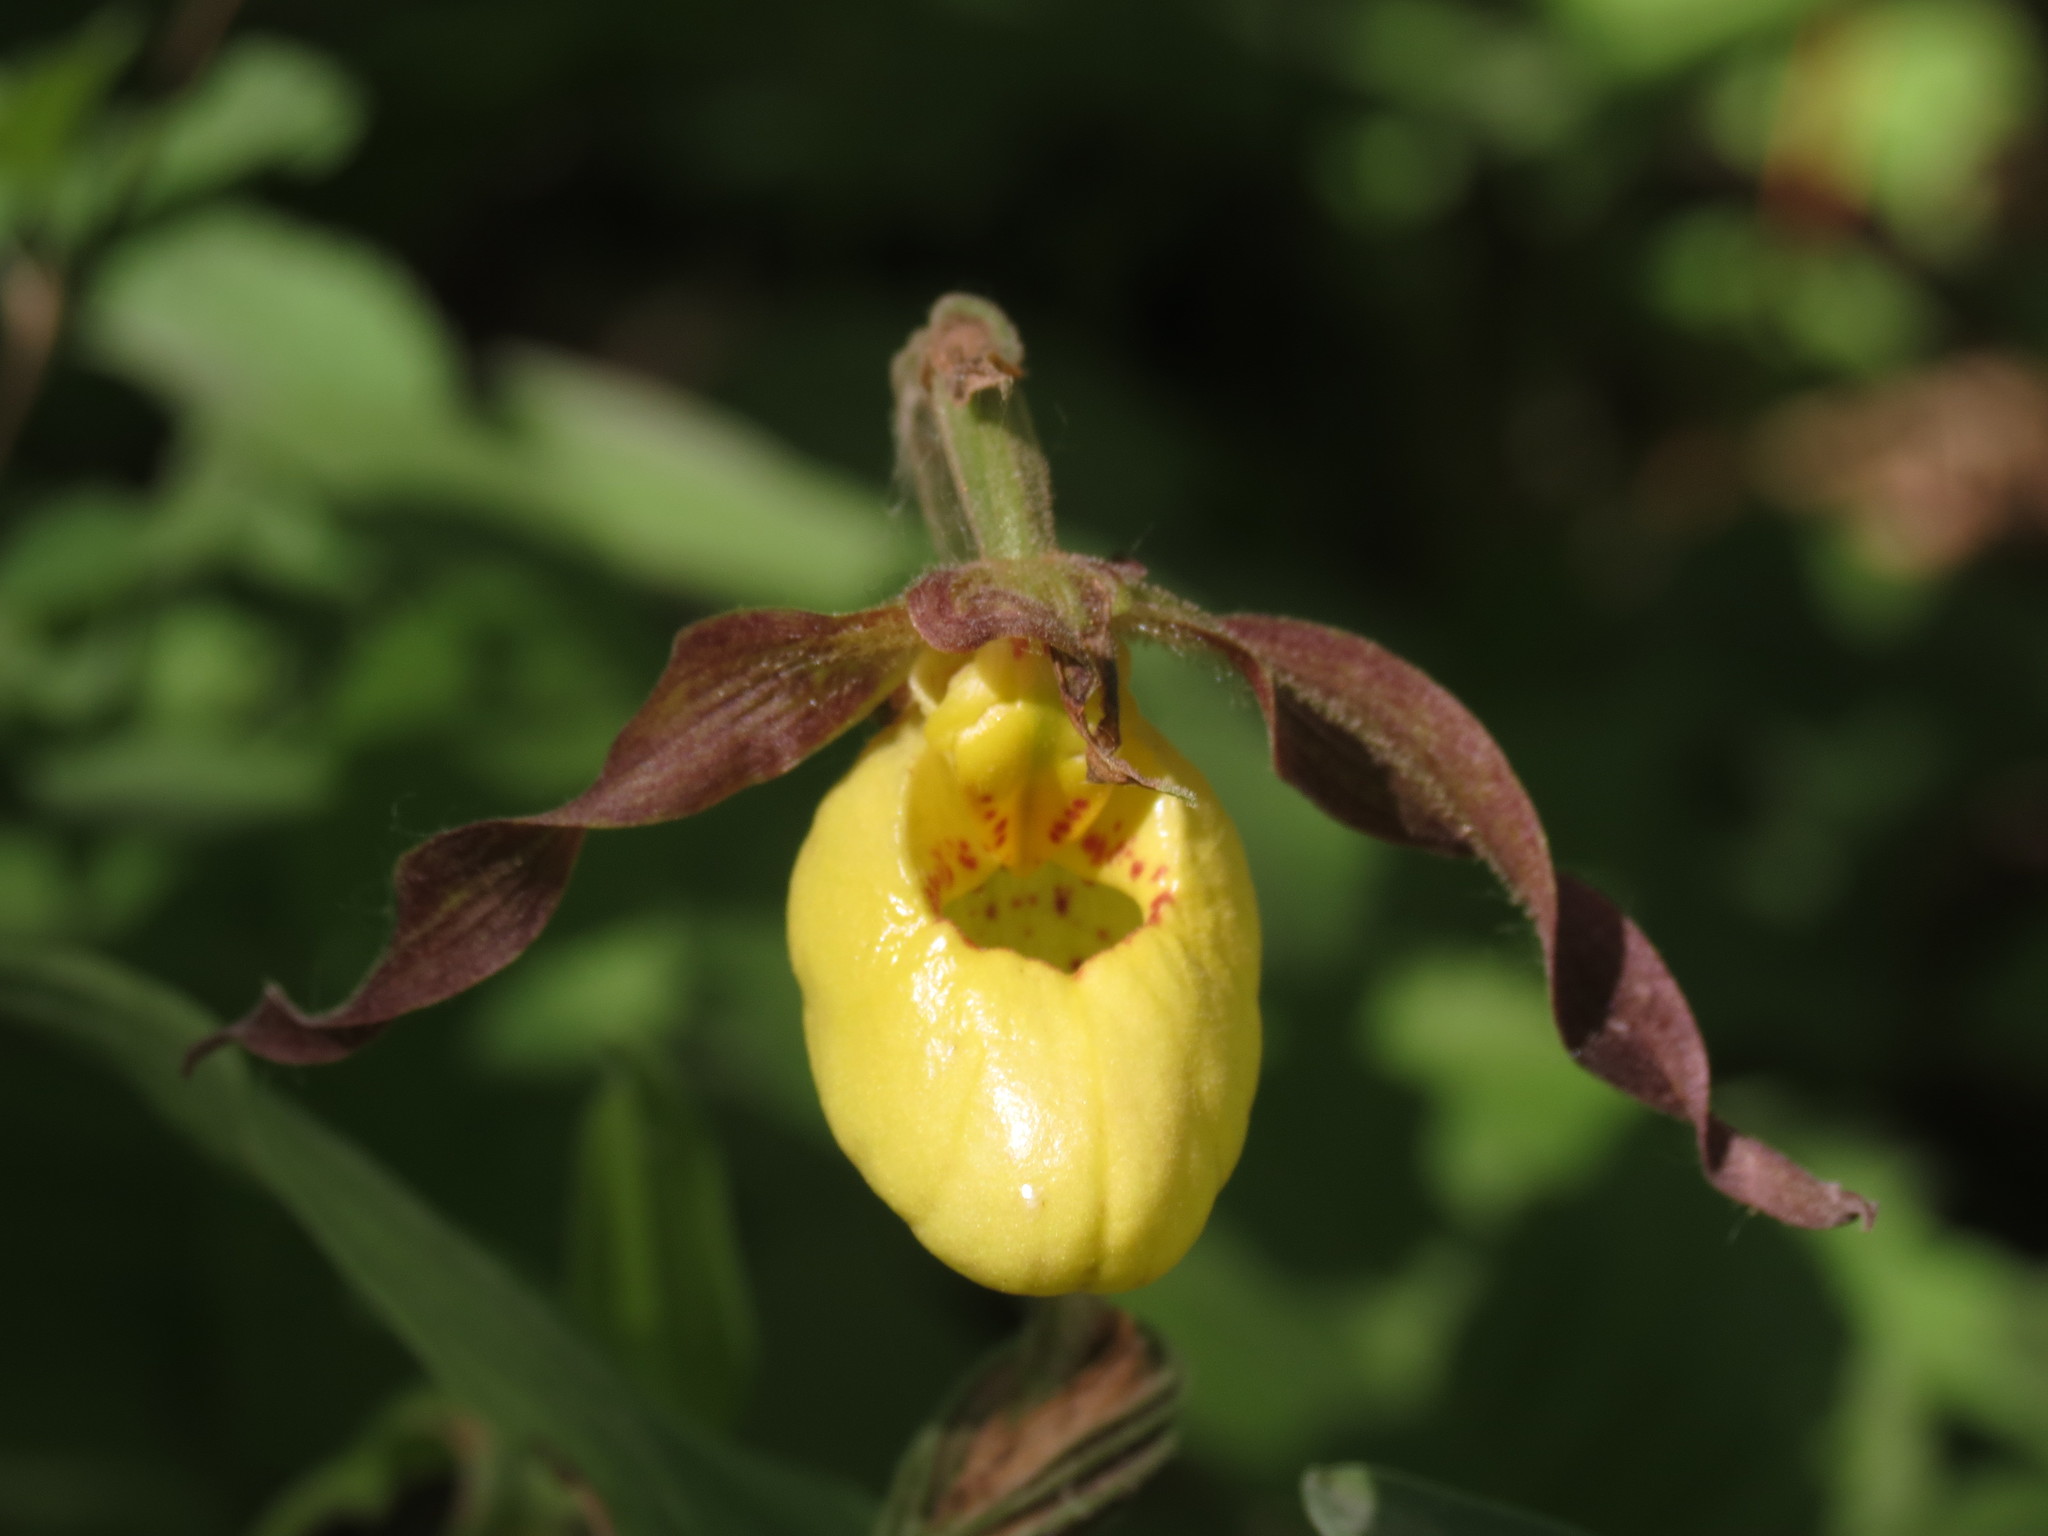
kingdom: Plantae
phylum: Tracheophyta
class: Liliopsida
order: Asparagales
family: Orchidaceae
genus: Cypripedium
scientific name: Cypripedium parviflorum
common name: American yellow lady's-slipper
